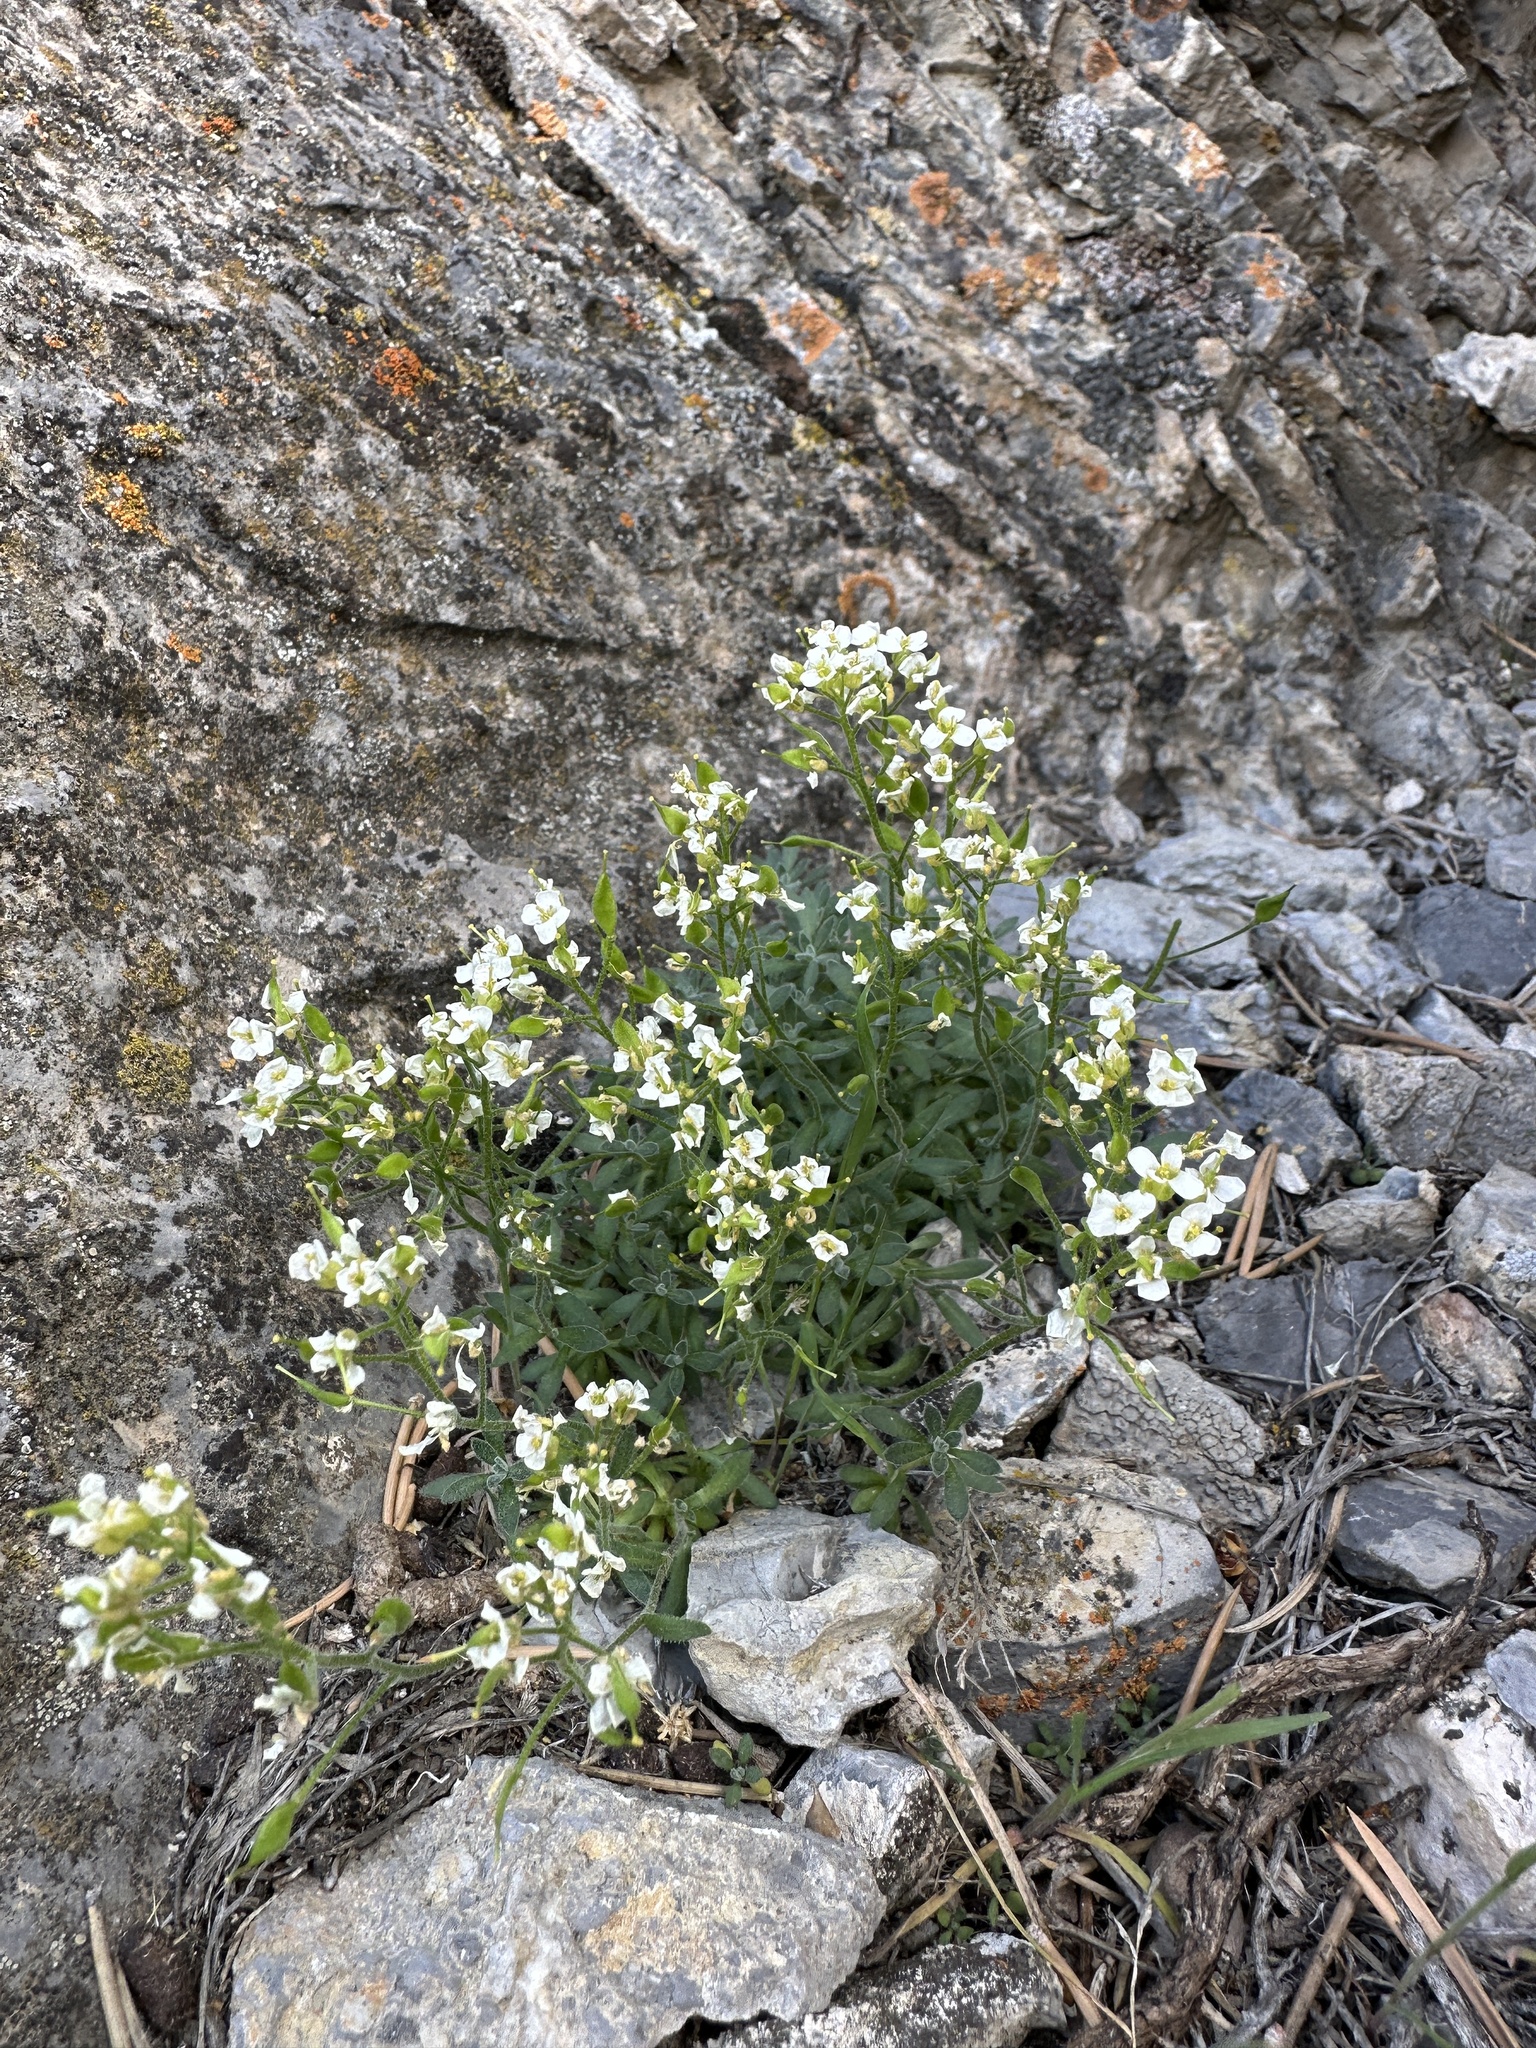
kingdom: Plantae
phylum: Tracheophyta
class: Magnoliopsida
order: Brassicales
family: Brassicaceae
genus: Draba
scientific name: Draba pennellii
